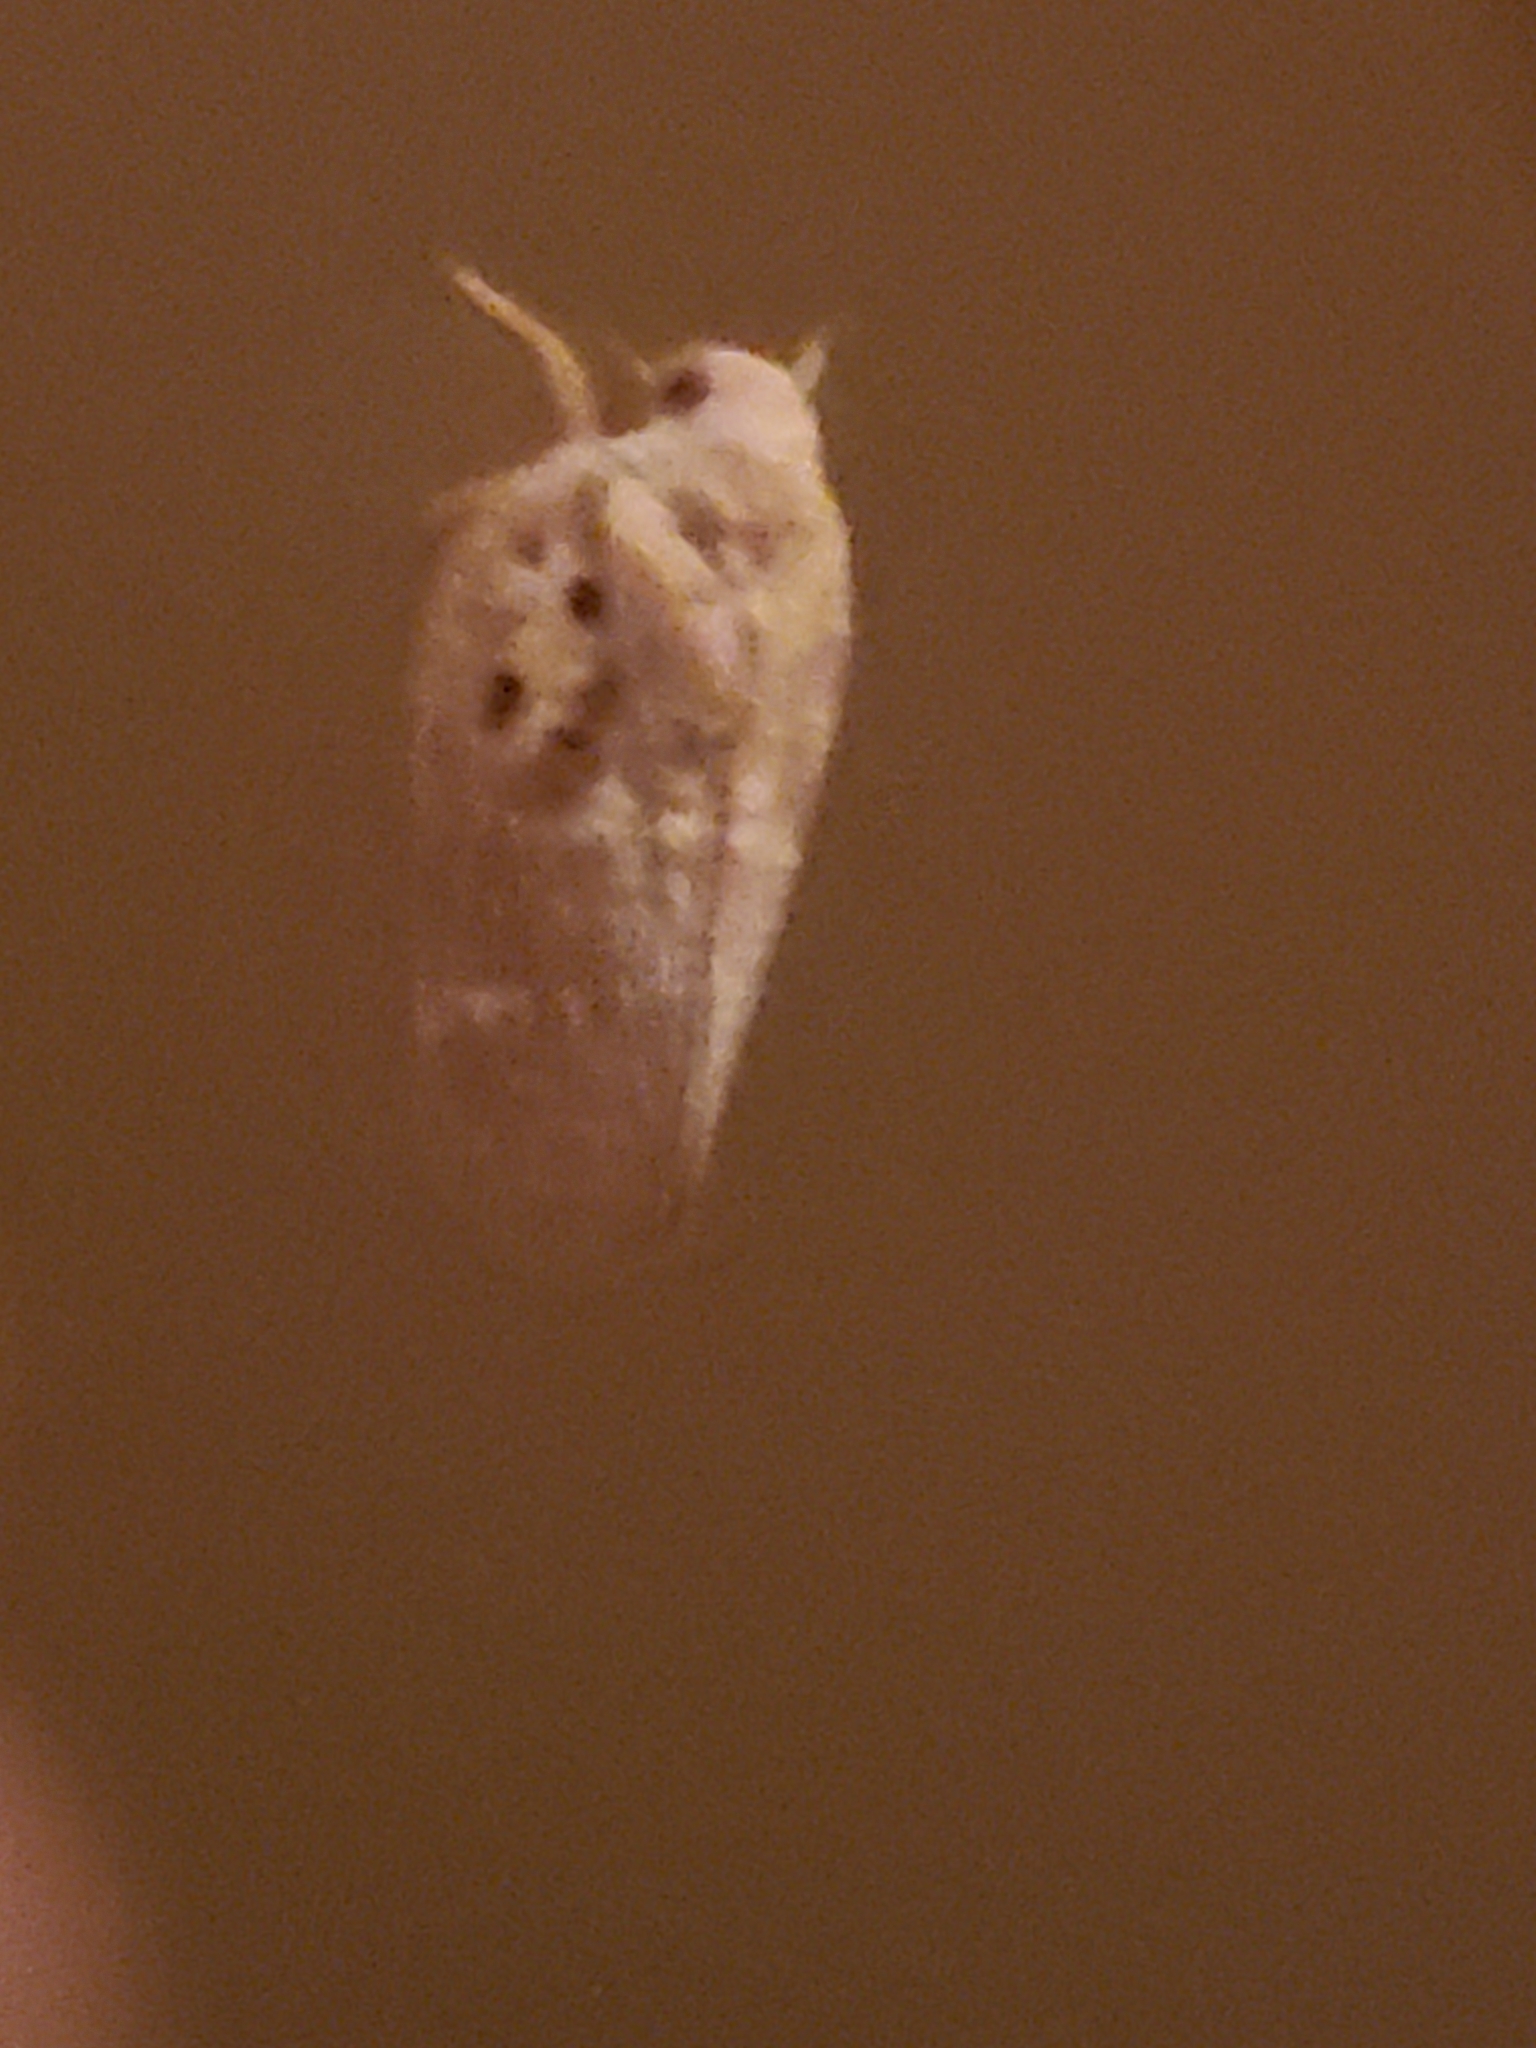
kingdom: Animalia
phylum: Arthropoda
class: Insecta
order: Hemiptera
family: Flatidae
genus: Metcalfa
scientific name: Metcalfa pruinosa
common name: Citrus flatid planthopper
